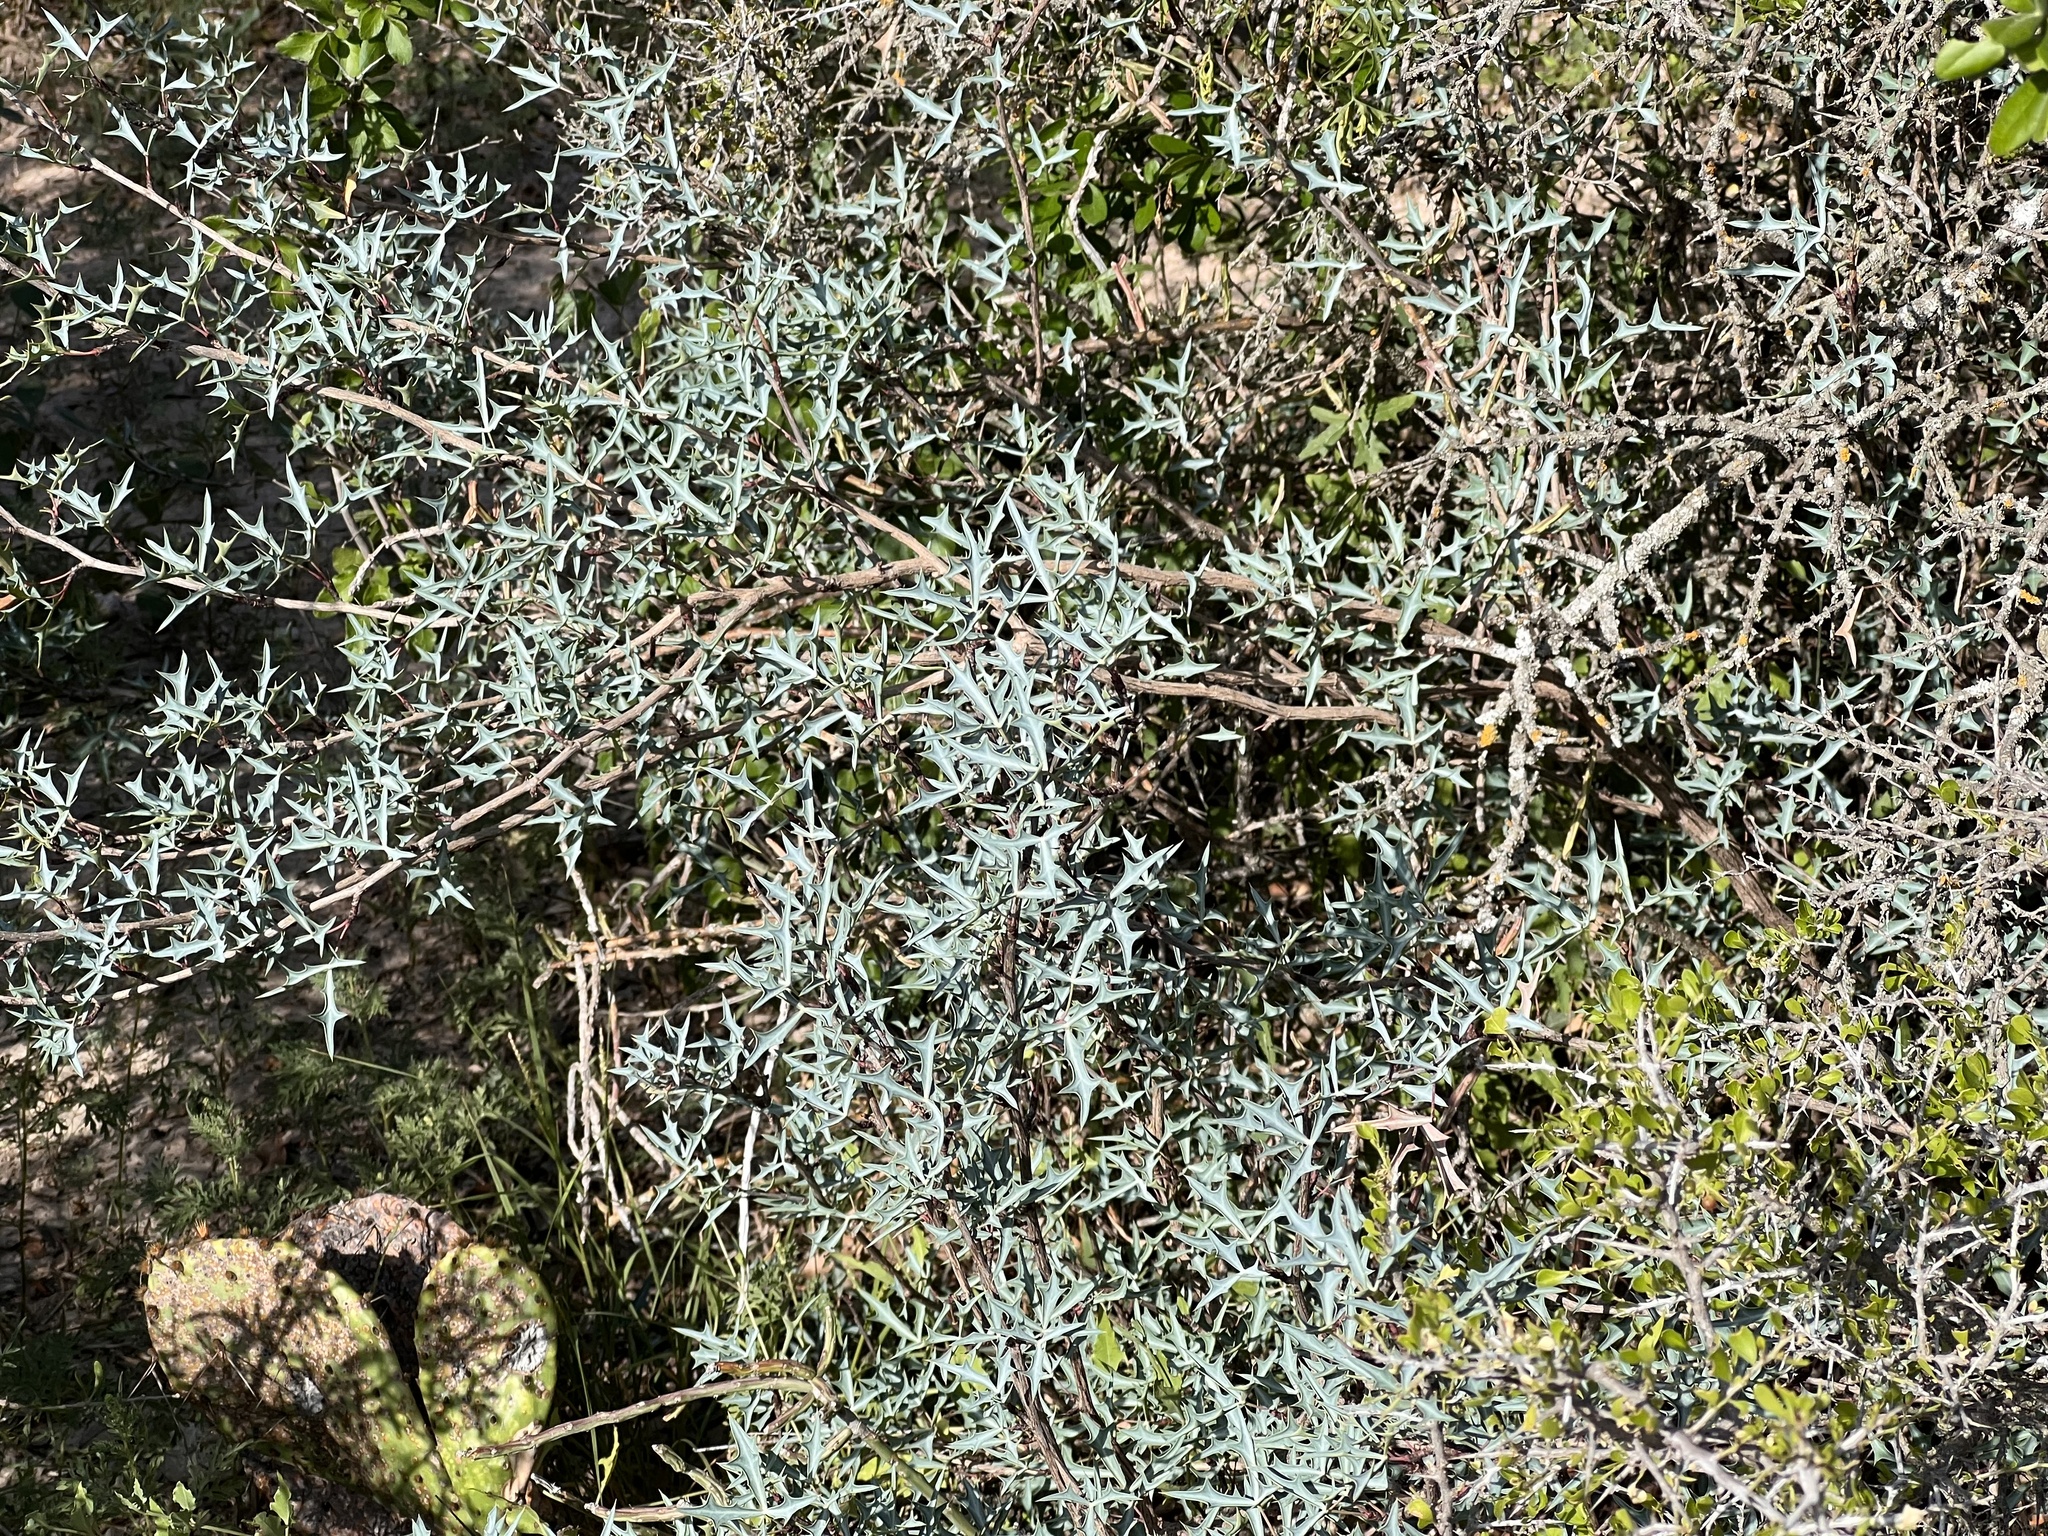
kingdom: Plantae
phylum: Tracheophyta
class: Magnoliopsida
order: Ranunculales
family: Berberidaceae
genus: Alloberberis
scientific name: Alloberberis trifoliolata
